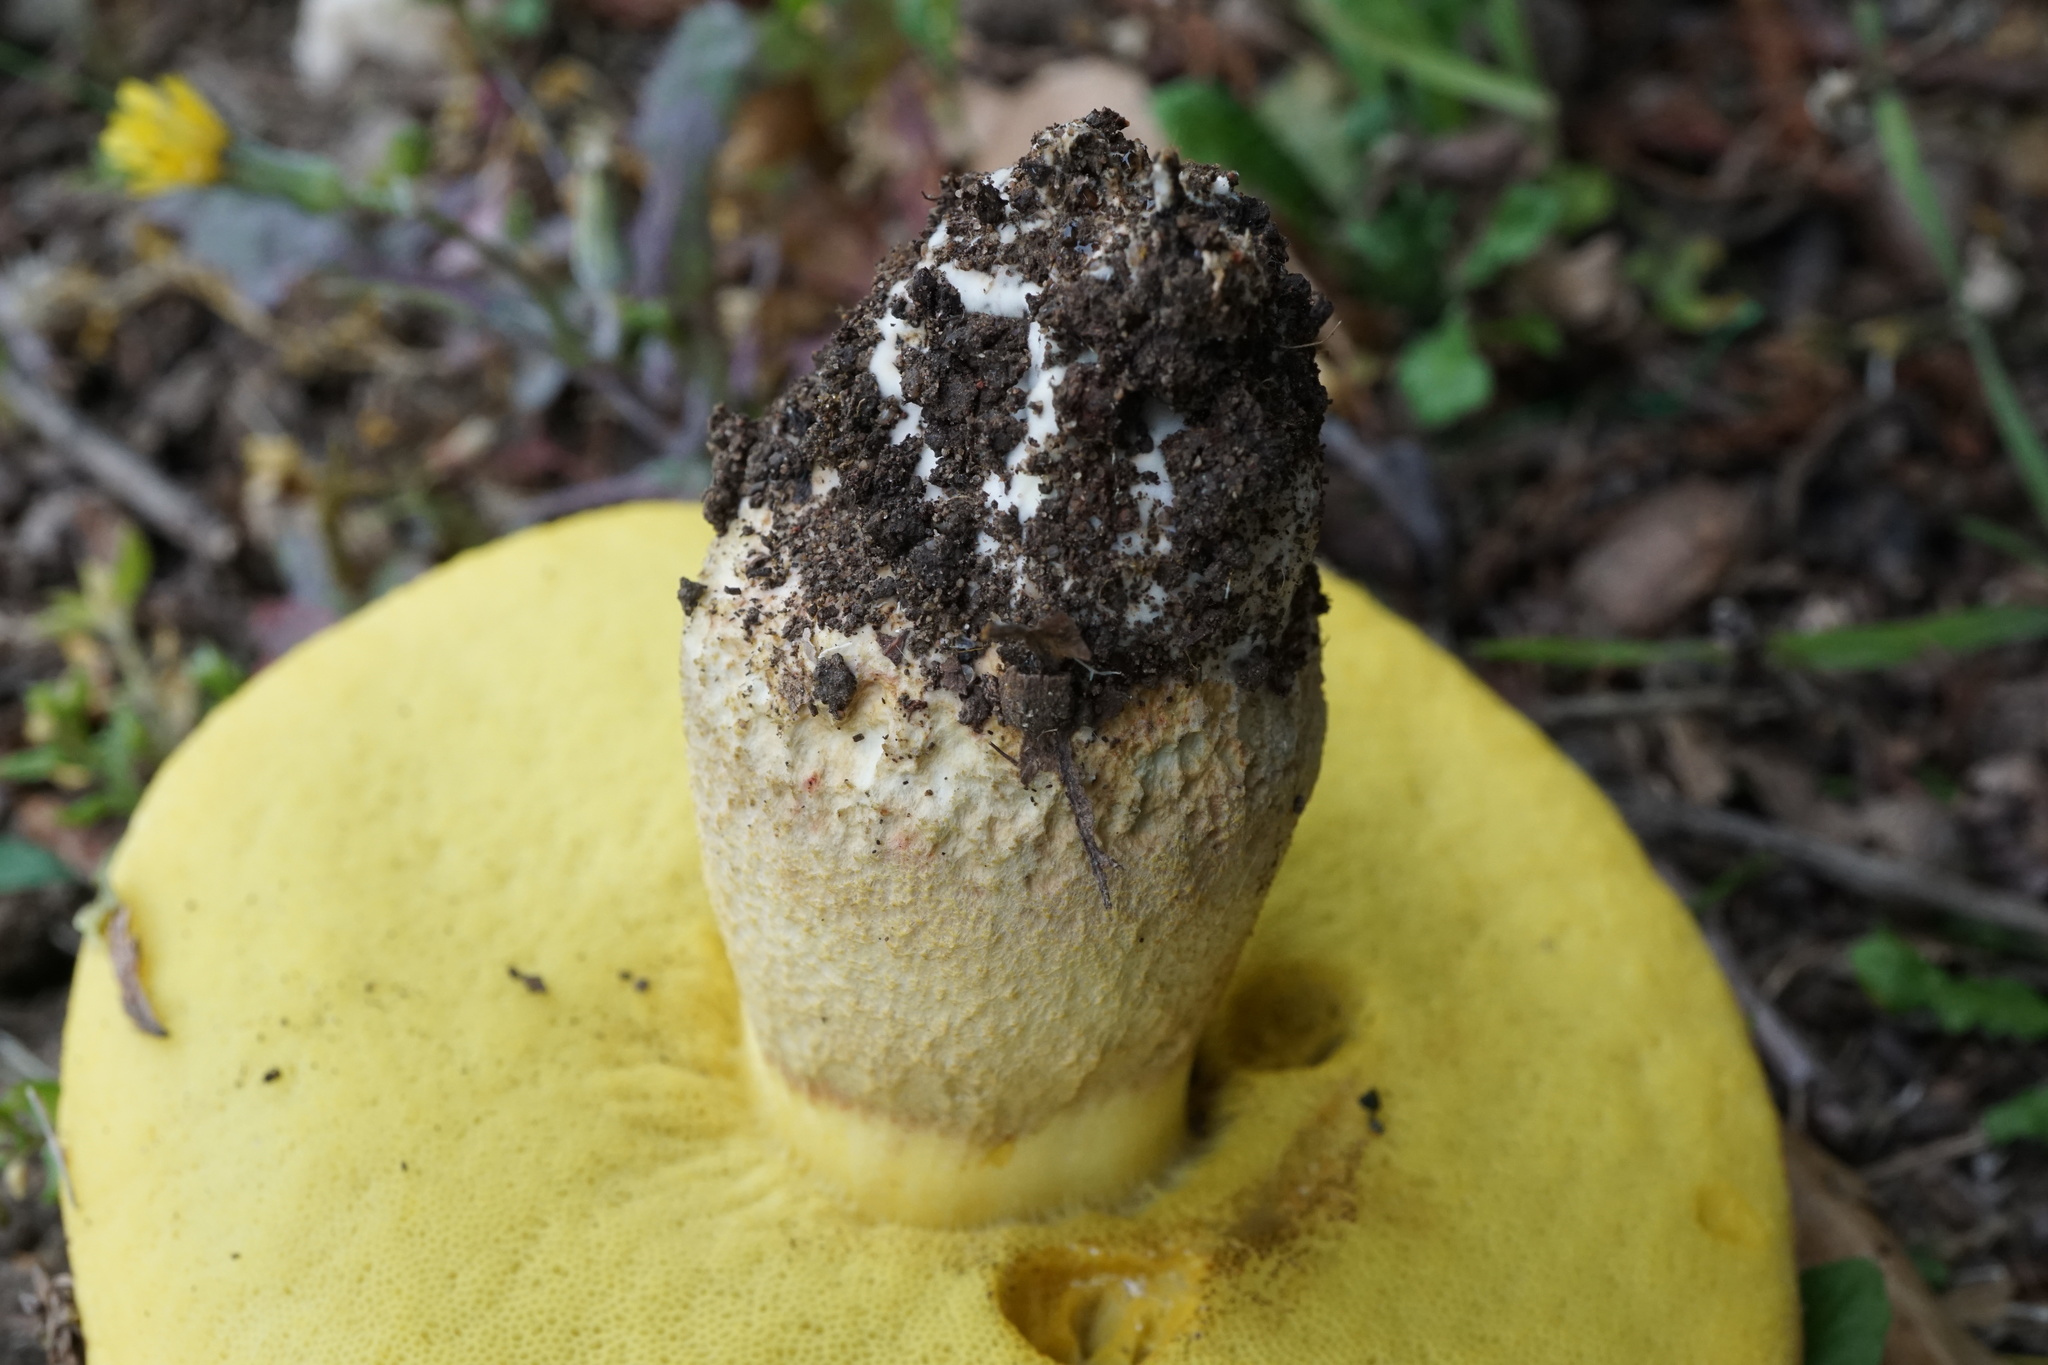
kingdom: Fungi
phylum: Basidiomycota
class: Agaricomycetes
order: Boletales
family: Boletaceae
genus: Hemileccinum
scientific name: Hemileccinum impolitum
